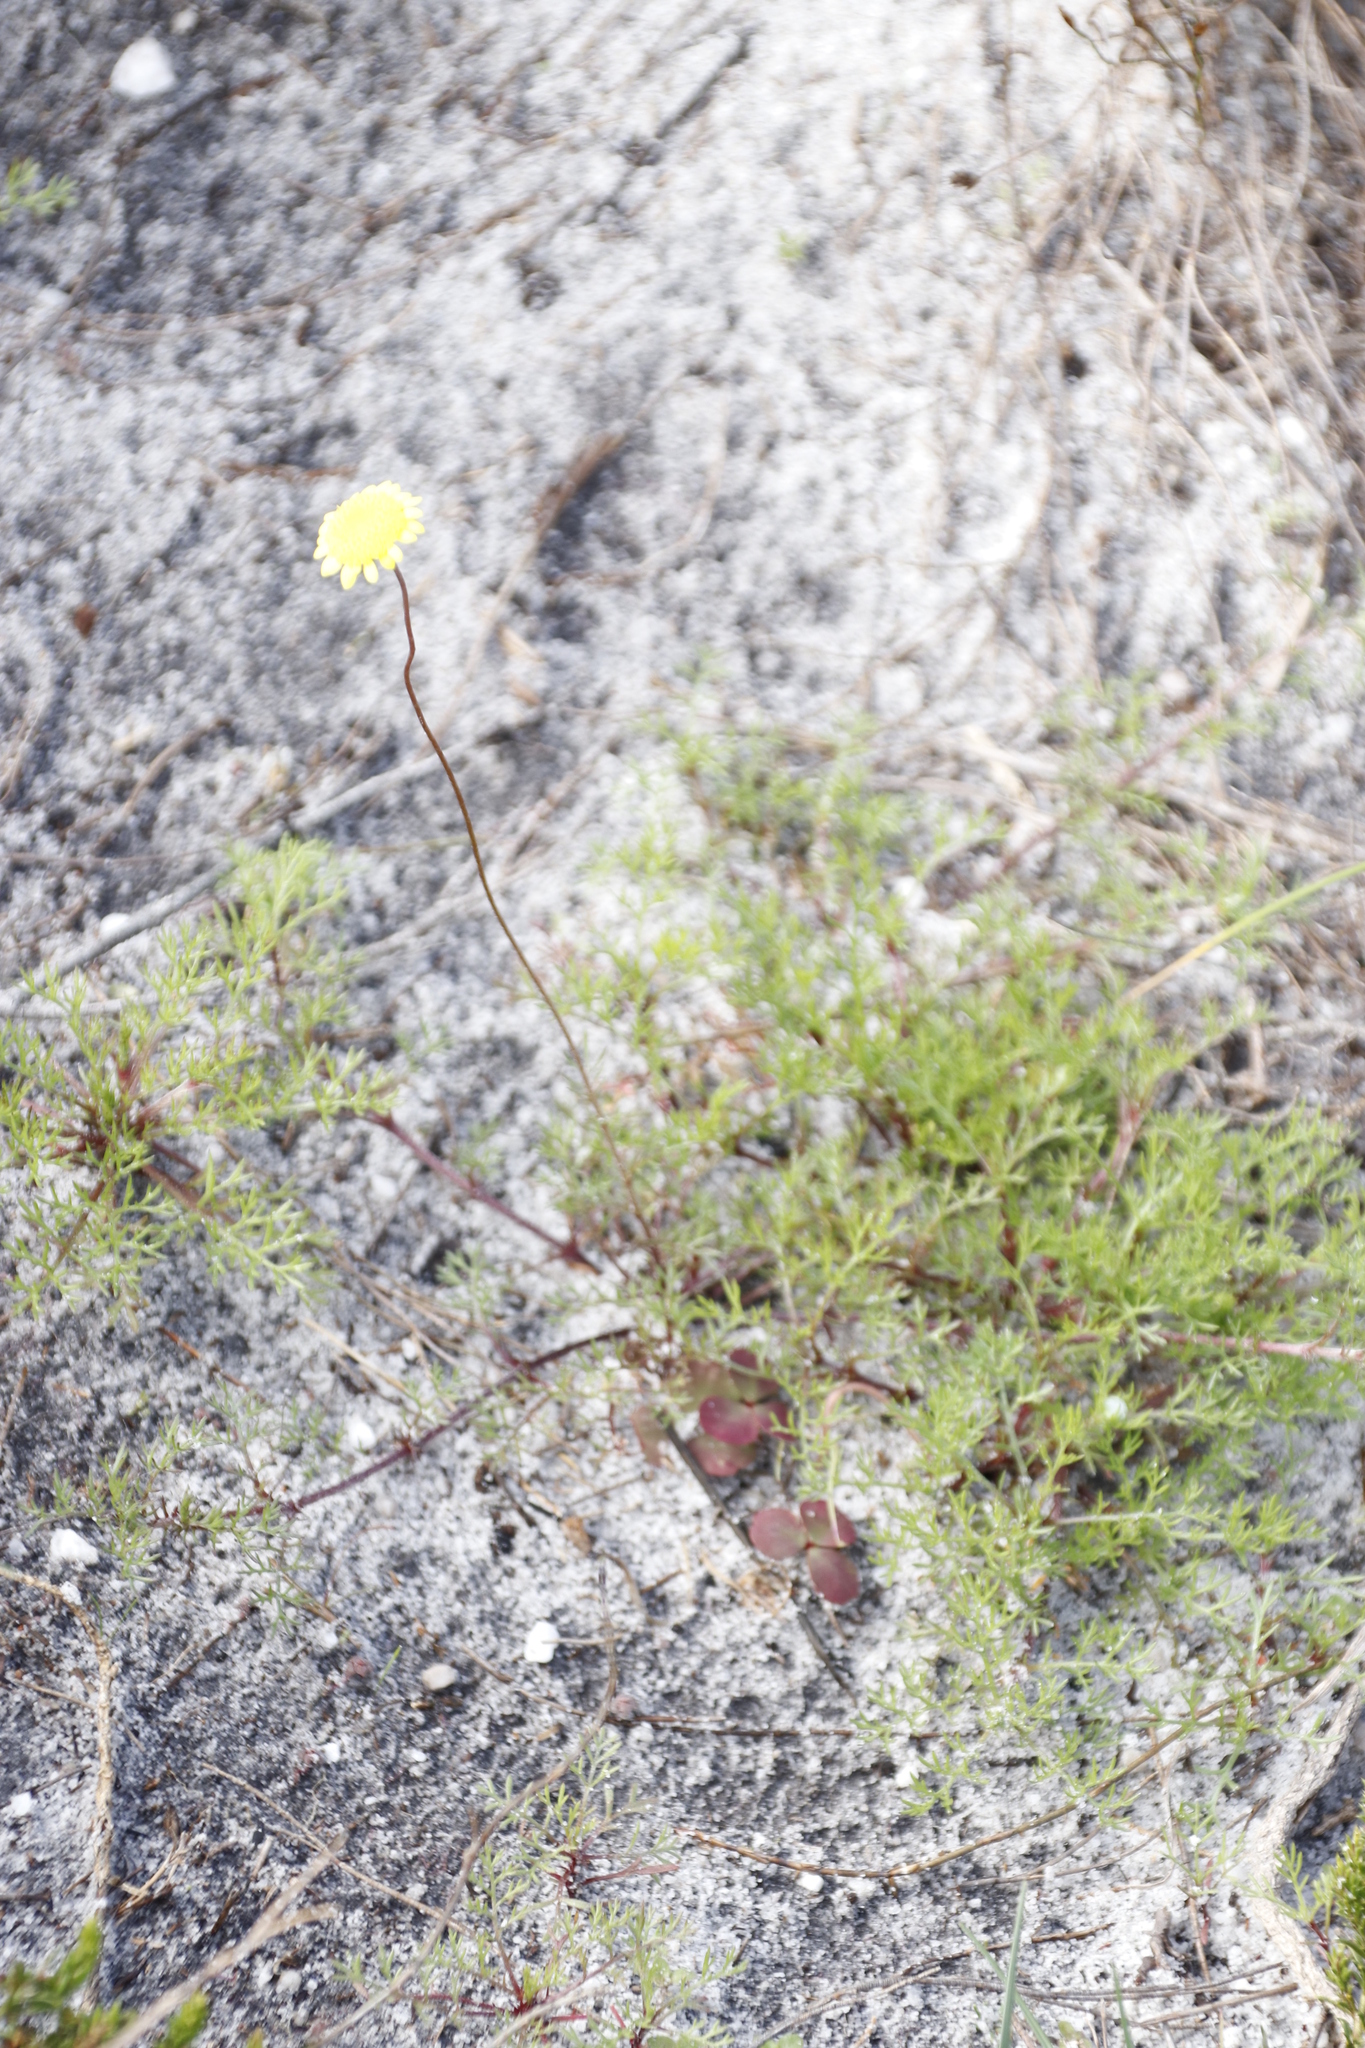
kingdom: Plantae
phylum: Tracheophyta
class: Magnoliopsida
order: Asterales
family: Asteraceae
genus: Cotula
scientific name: Cotula pruinosa
